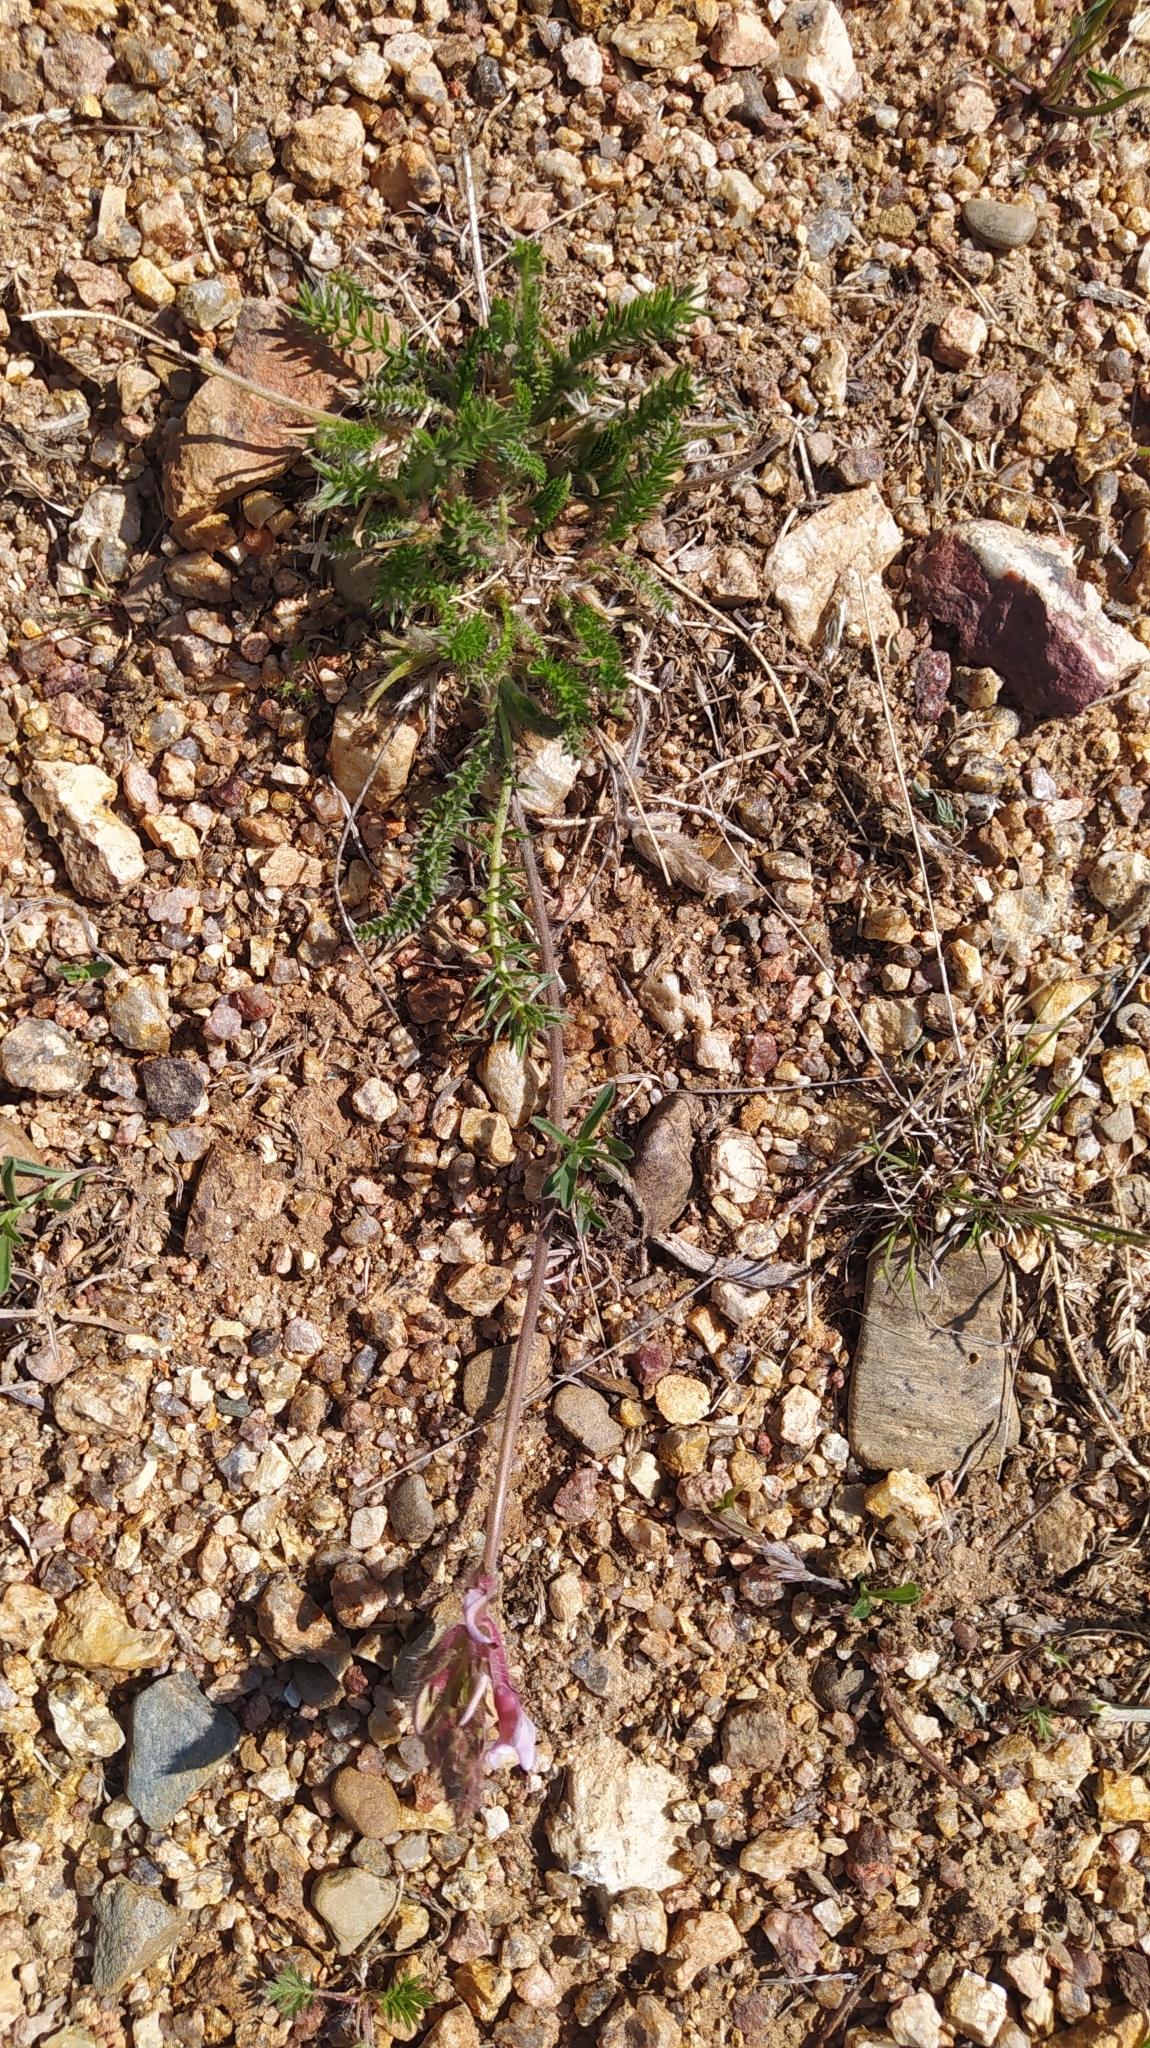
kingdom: Plantae
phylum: Tracheophyta
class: Magnoliopsida
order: Fabales
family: Fabaceae
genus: Oxytropis
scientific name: Oxytropis myriophylla
